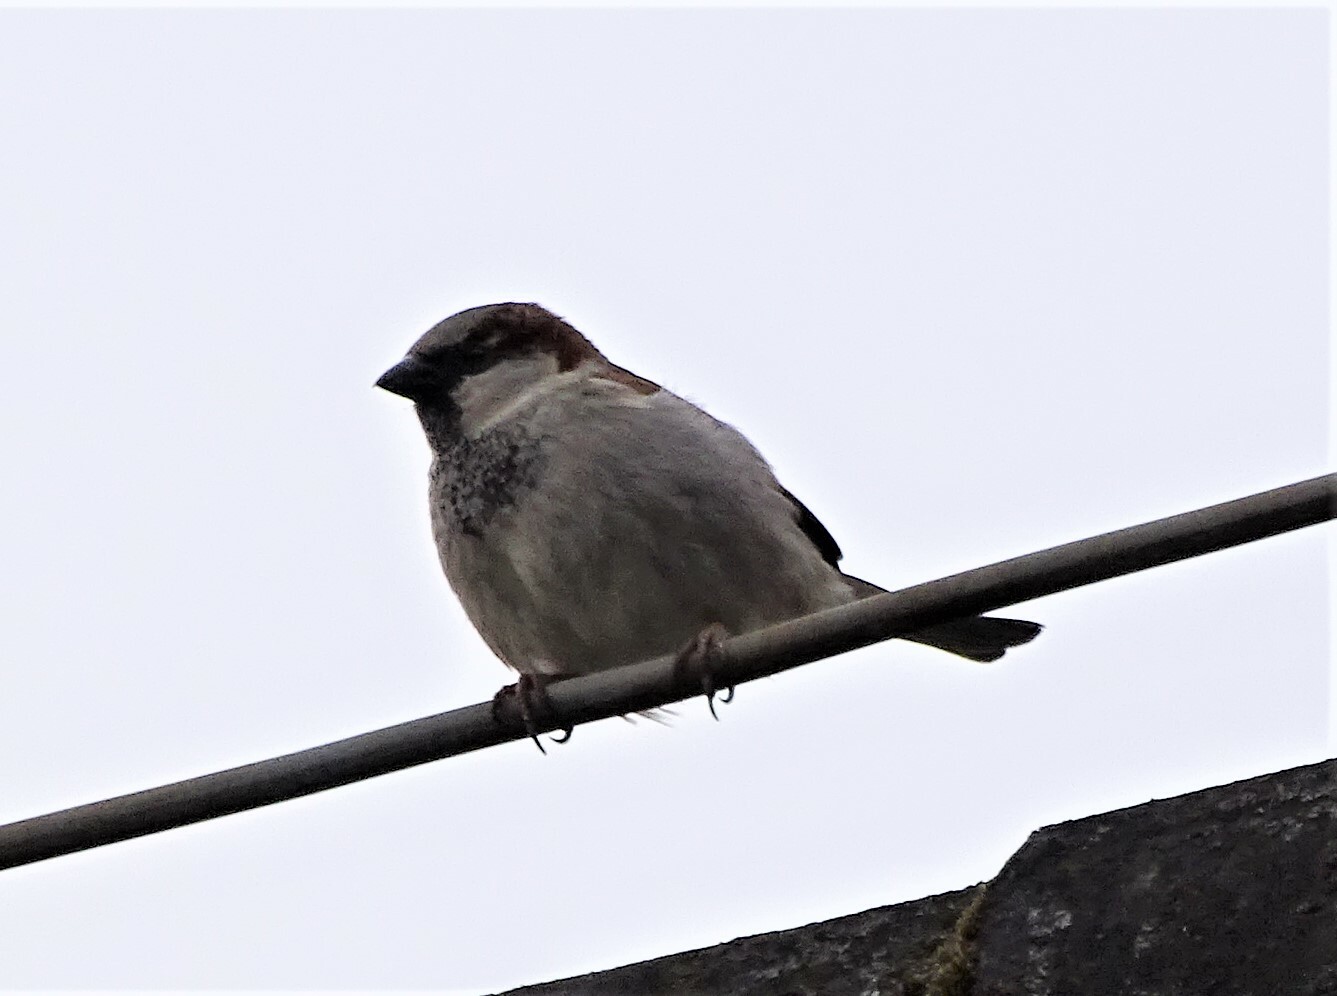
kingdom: Animalia
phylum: Chordata
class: Aves
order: Passeriformes
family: Passeridae
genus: Passer
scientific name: Passer domesticus
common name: House sparrow
